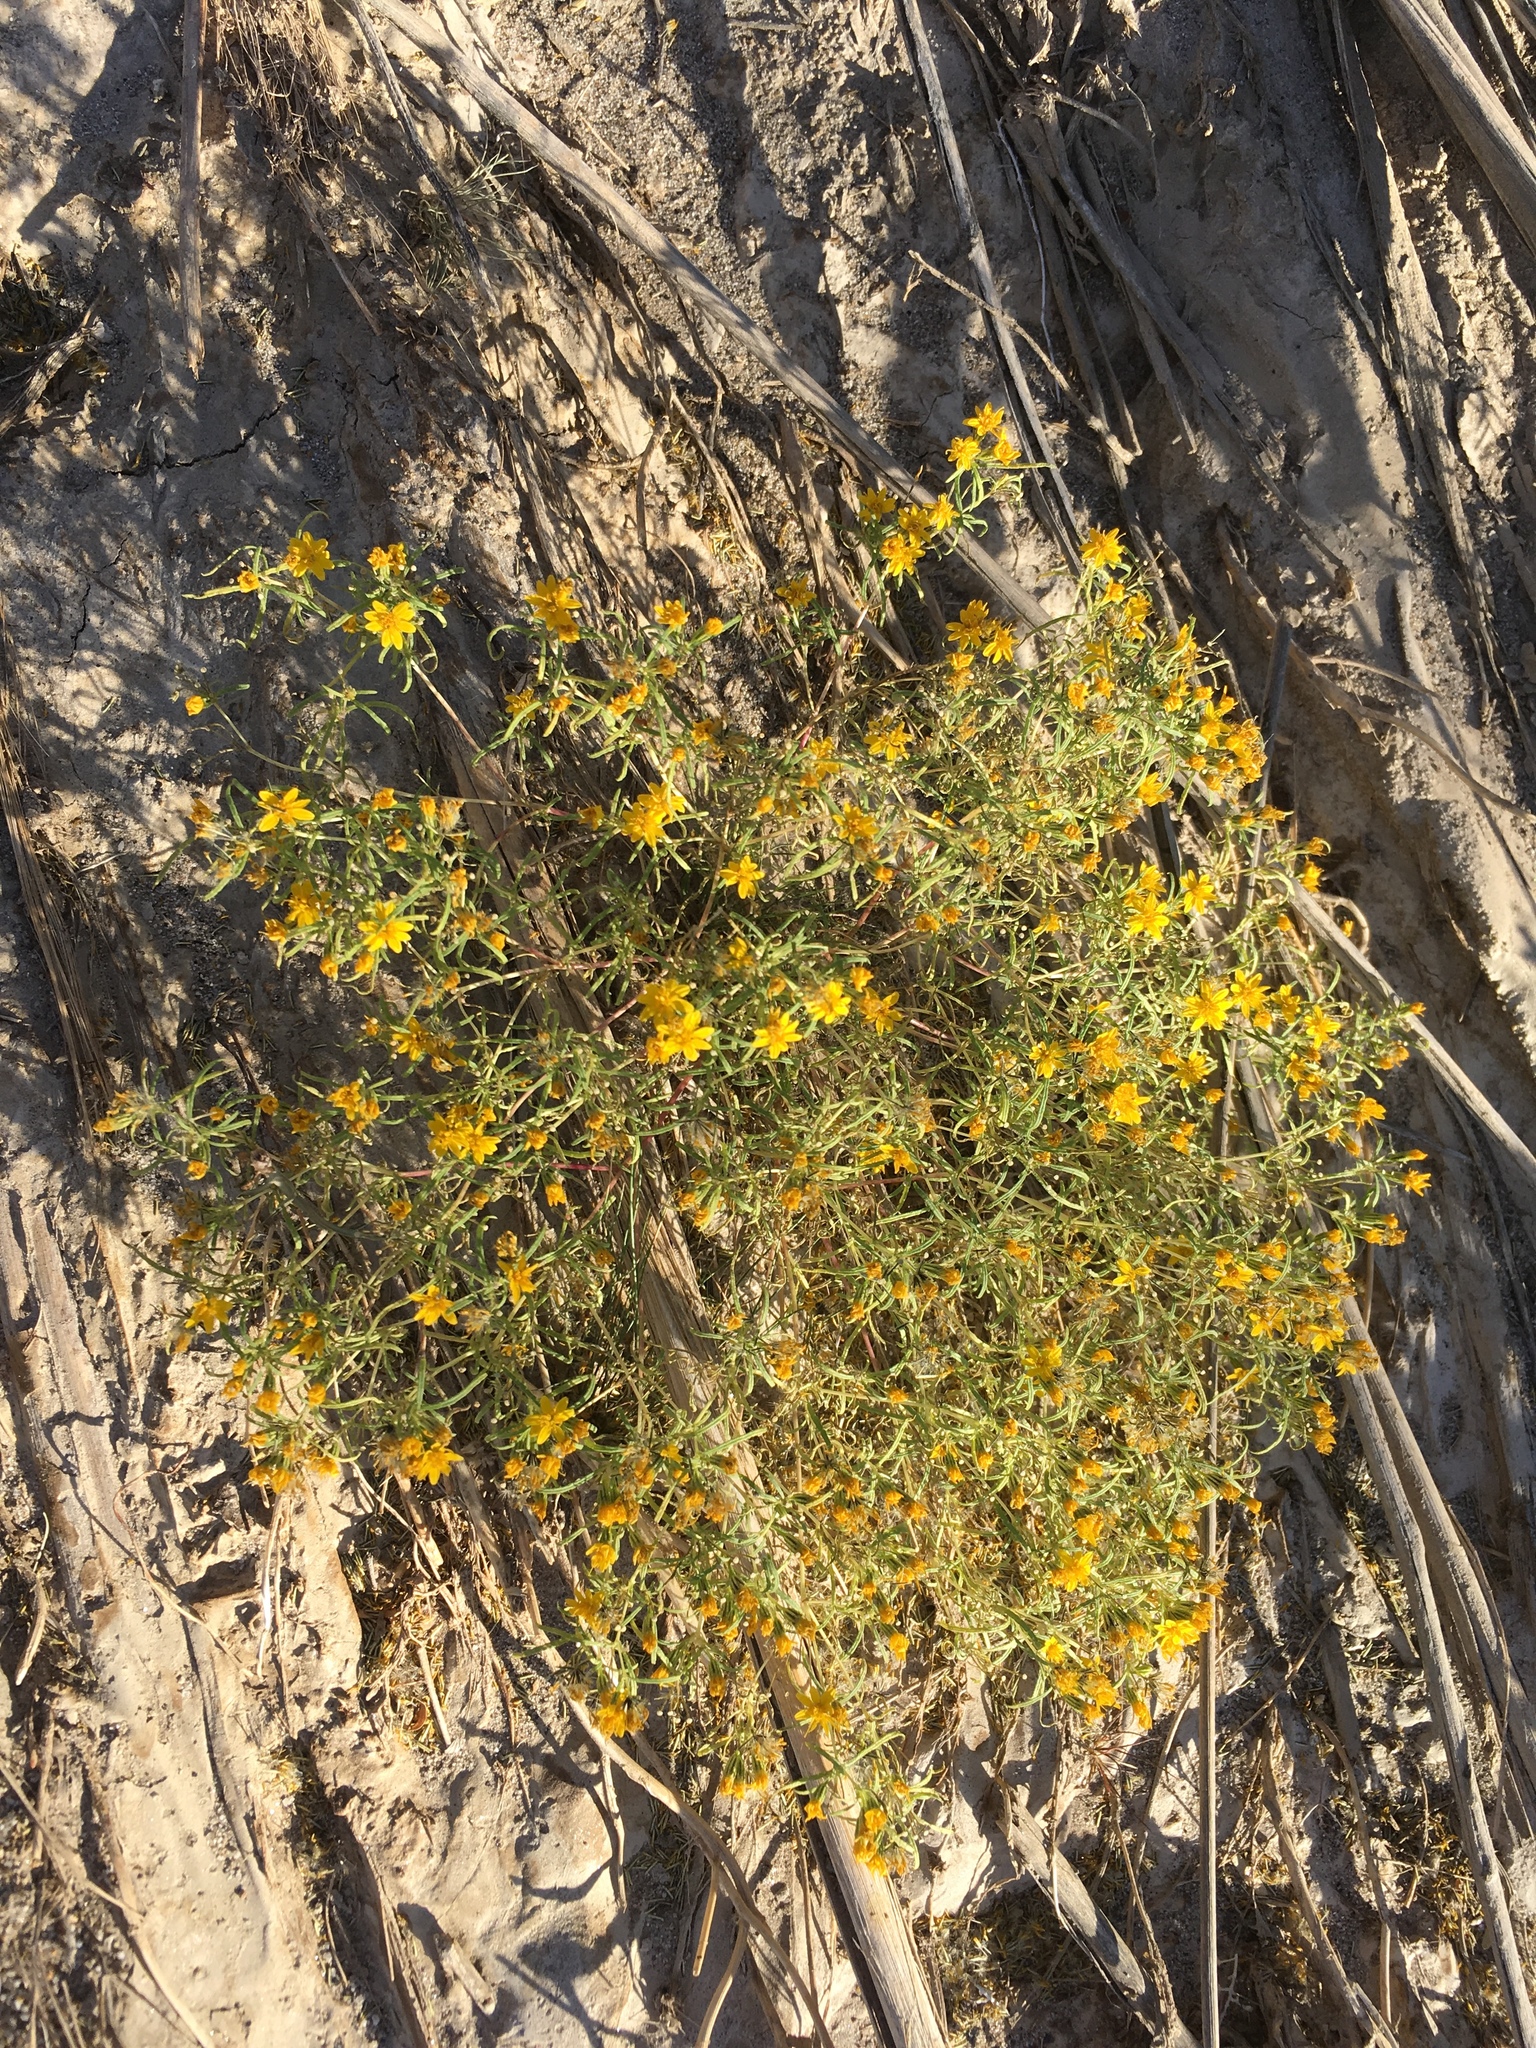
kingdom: Plantae
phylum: Tracheophyta
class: Magnoliopsida
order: Asterales
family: Asteraceae
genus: Pectis
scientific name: Pectis papposa
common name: Many-bristle chinchweed
